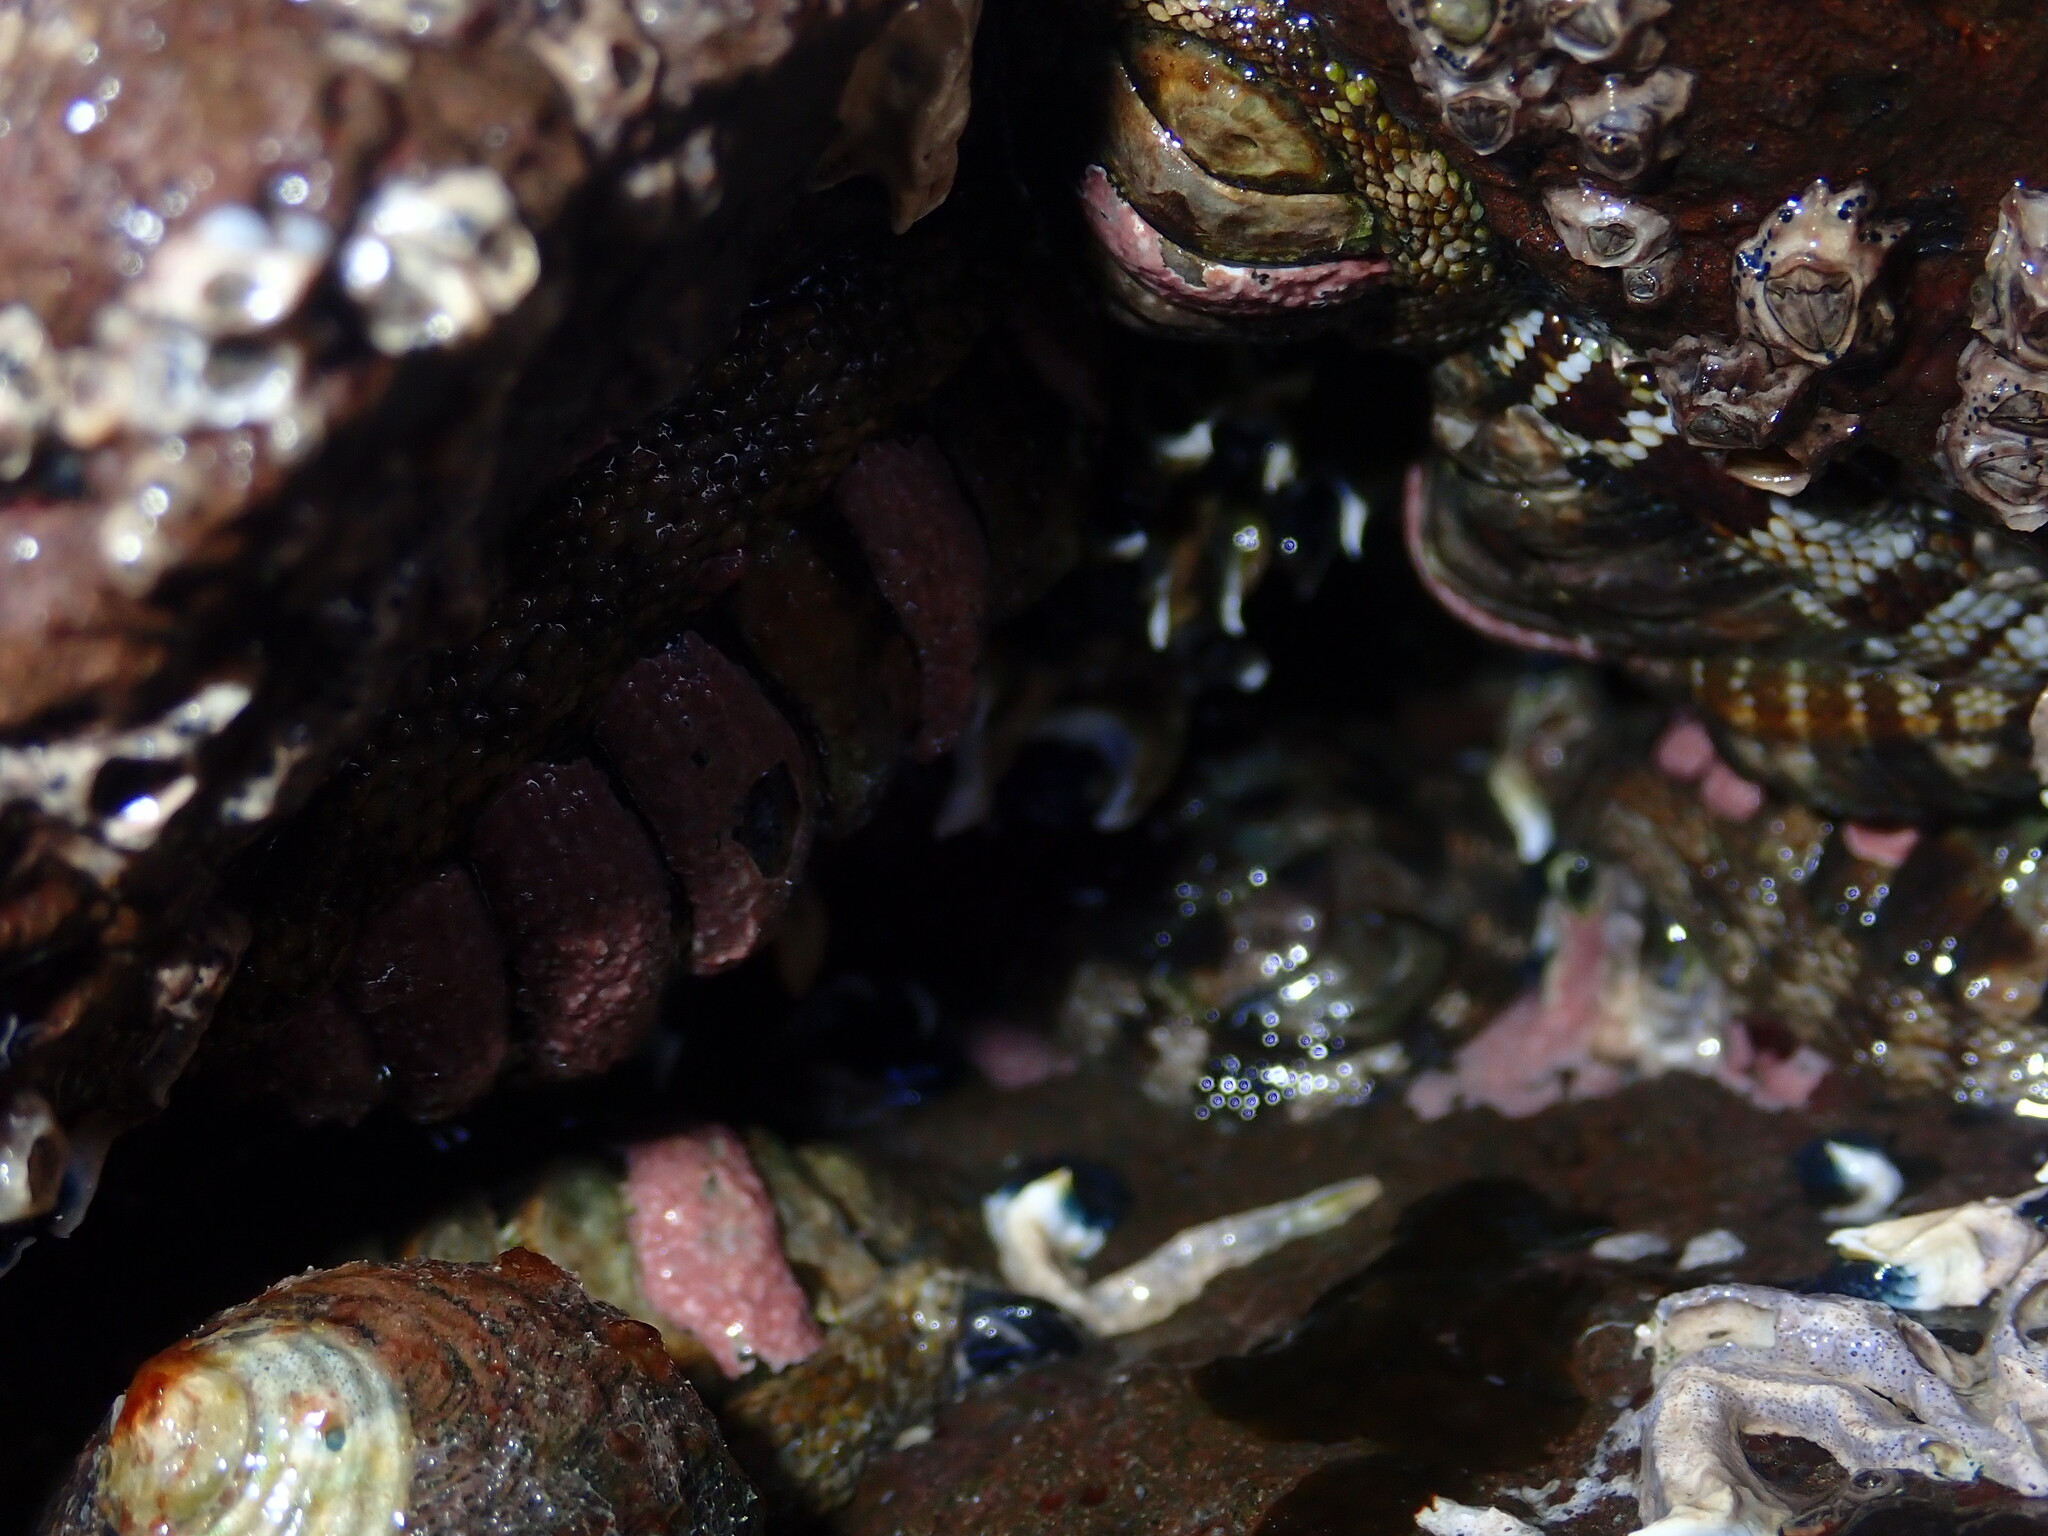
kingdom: Animalia
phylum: Mollusca
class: Polyplacophora
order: Chitonida
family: Chitonidae
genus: Sypharochiton
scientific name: Sypharochiton pelliserpentis
